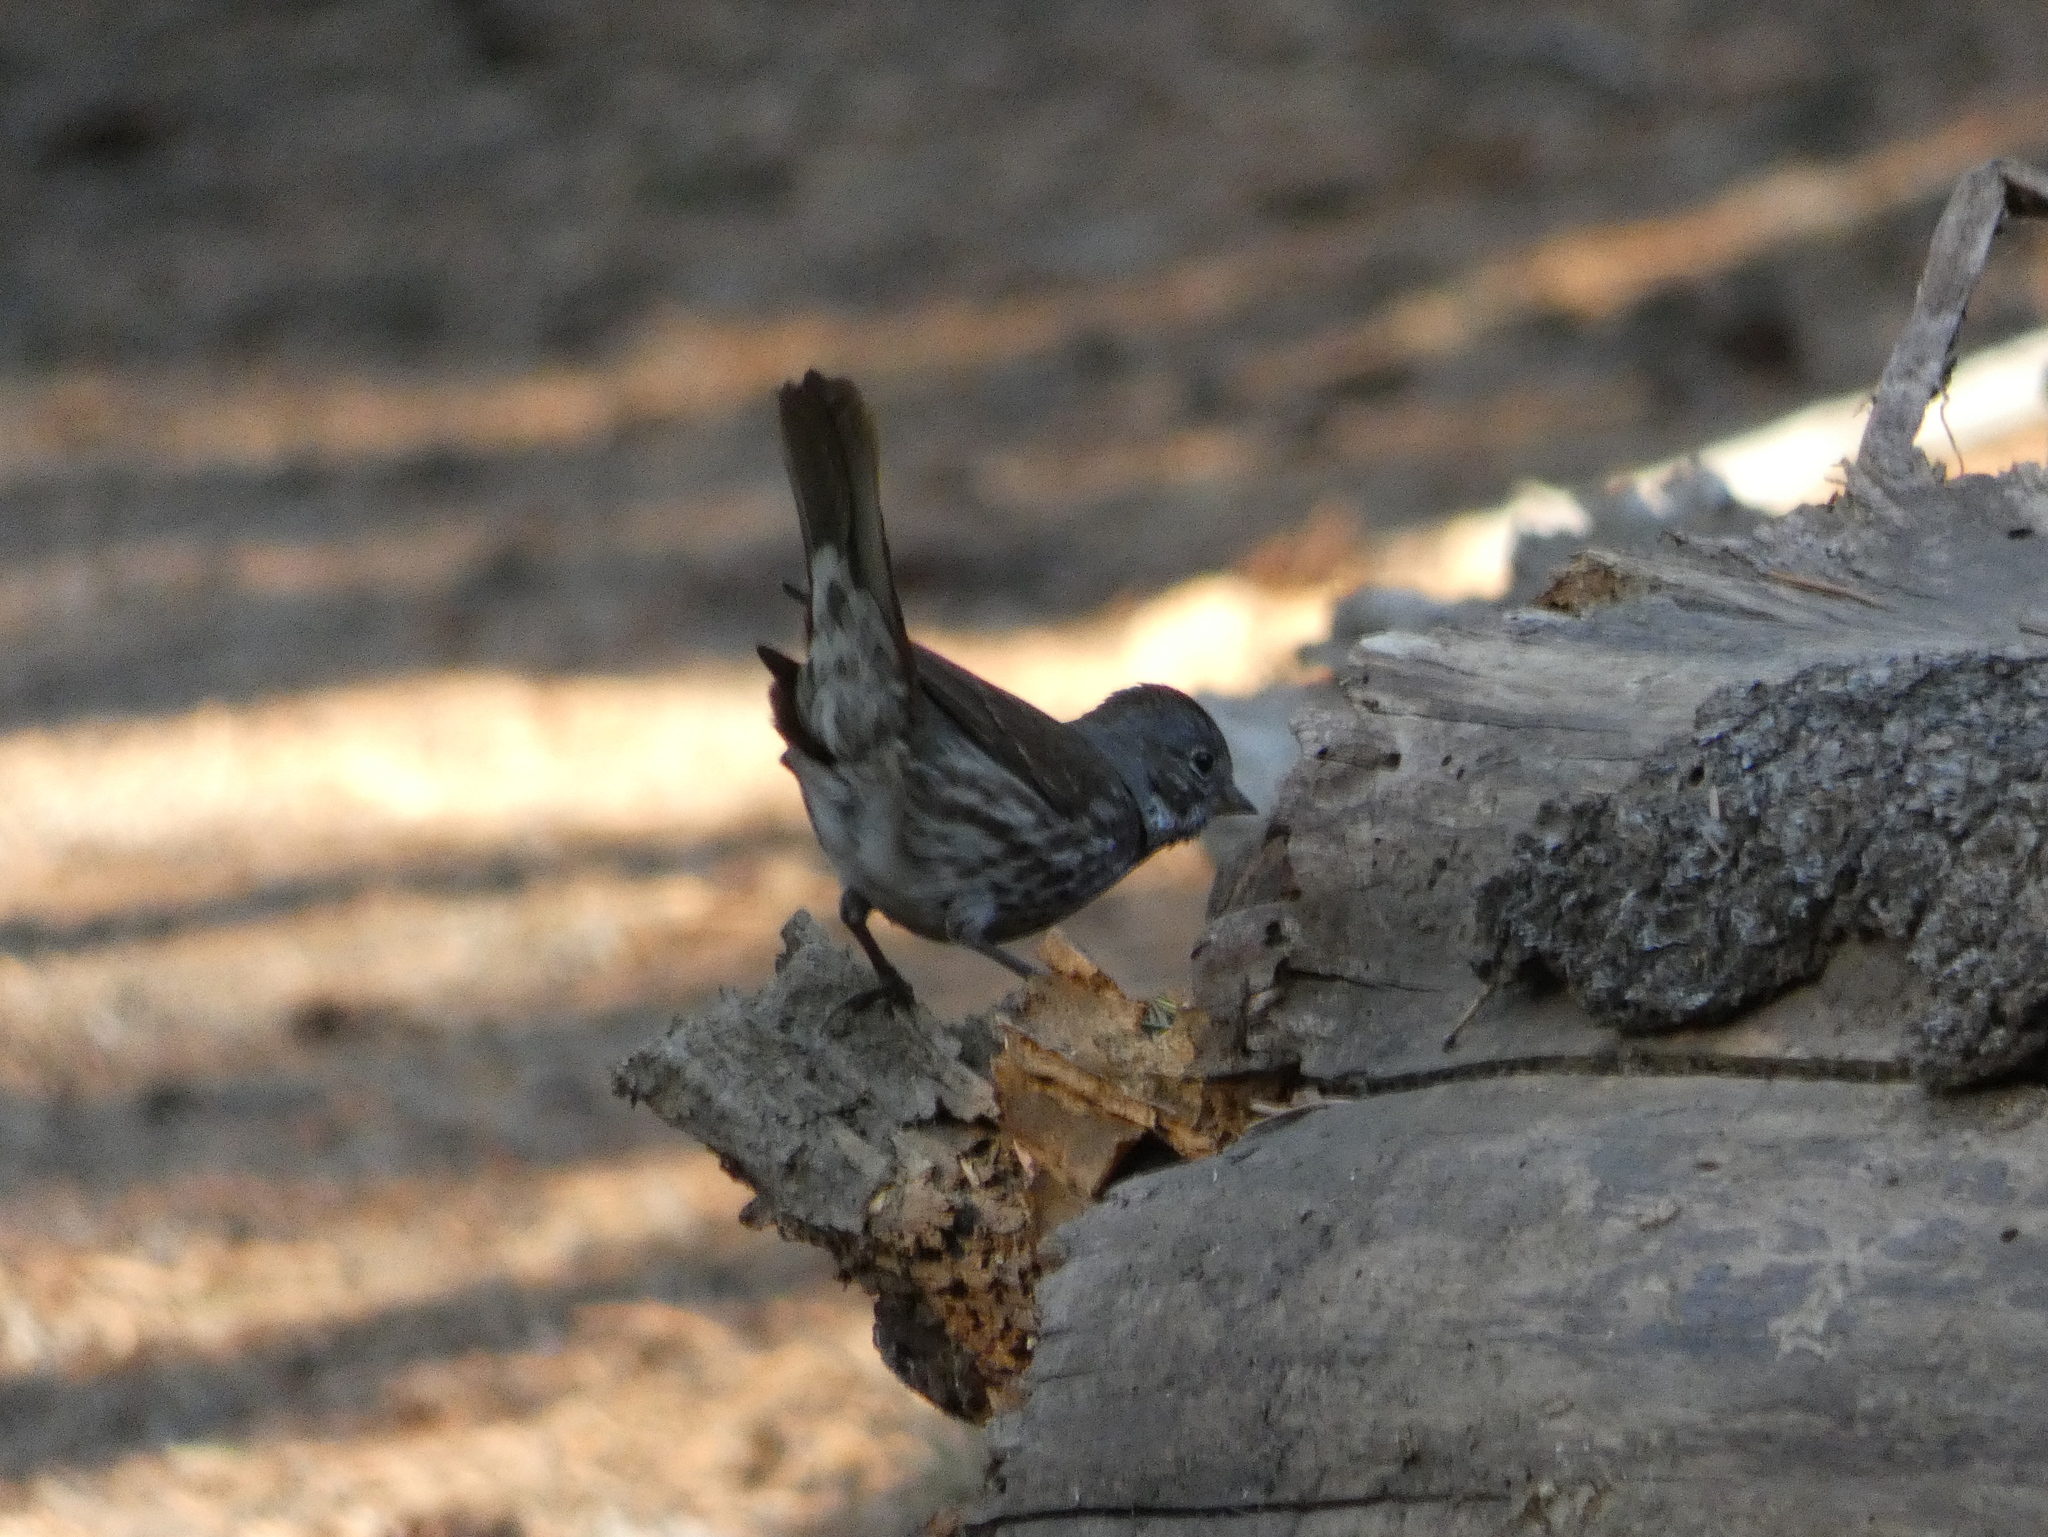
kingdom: Animalia
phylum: Chordata
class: Aves
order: Passeriformes
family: Passerellidae
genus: Passerella
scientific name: Passerella iliaca
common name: Fox sparrow
